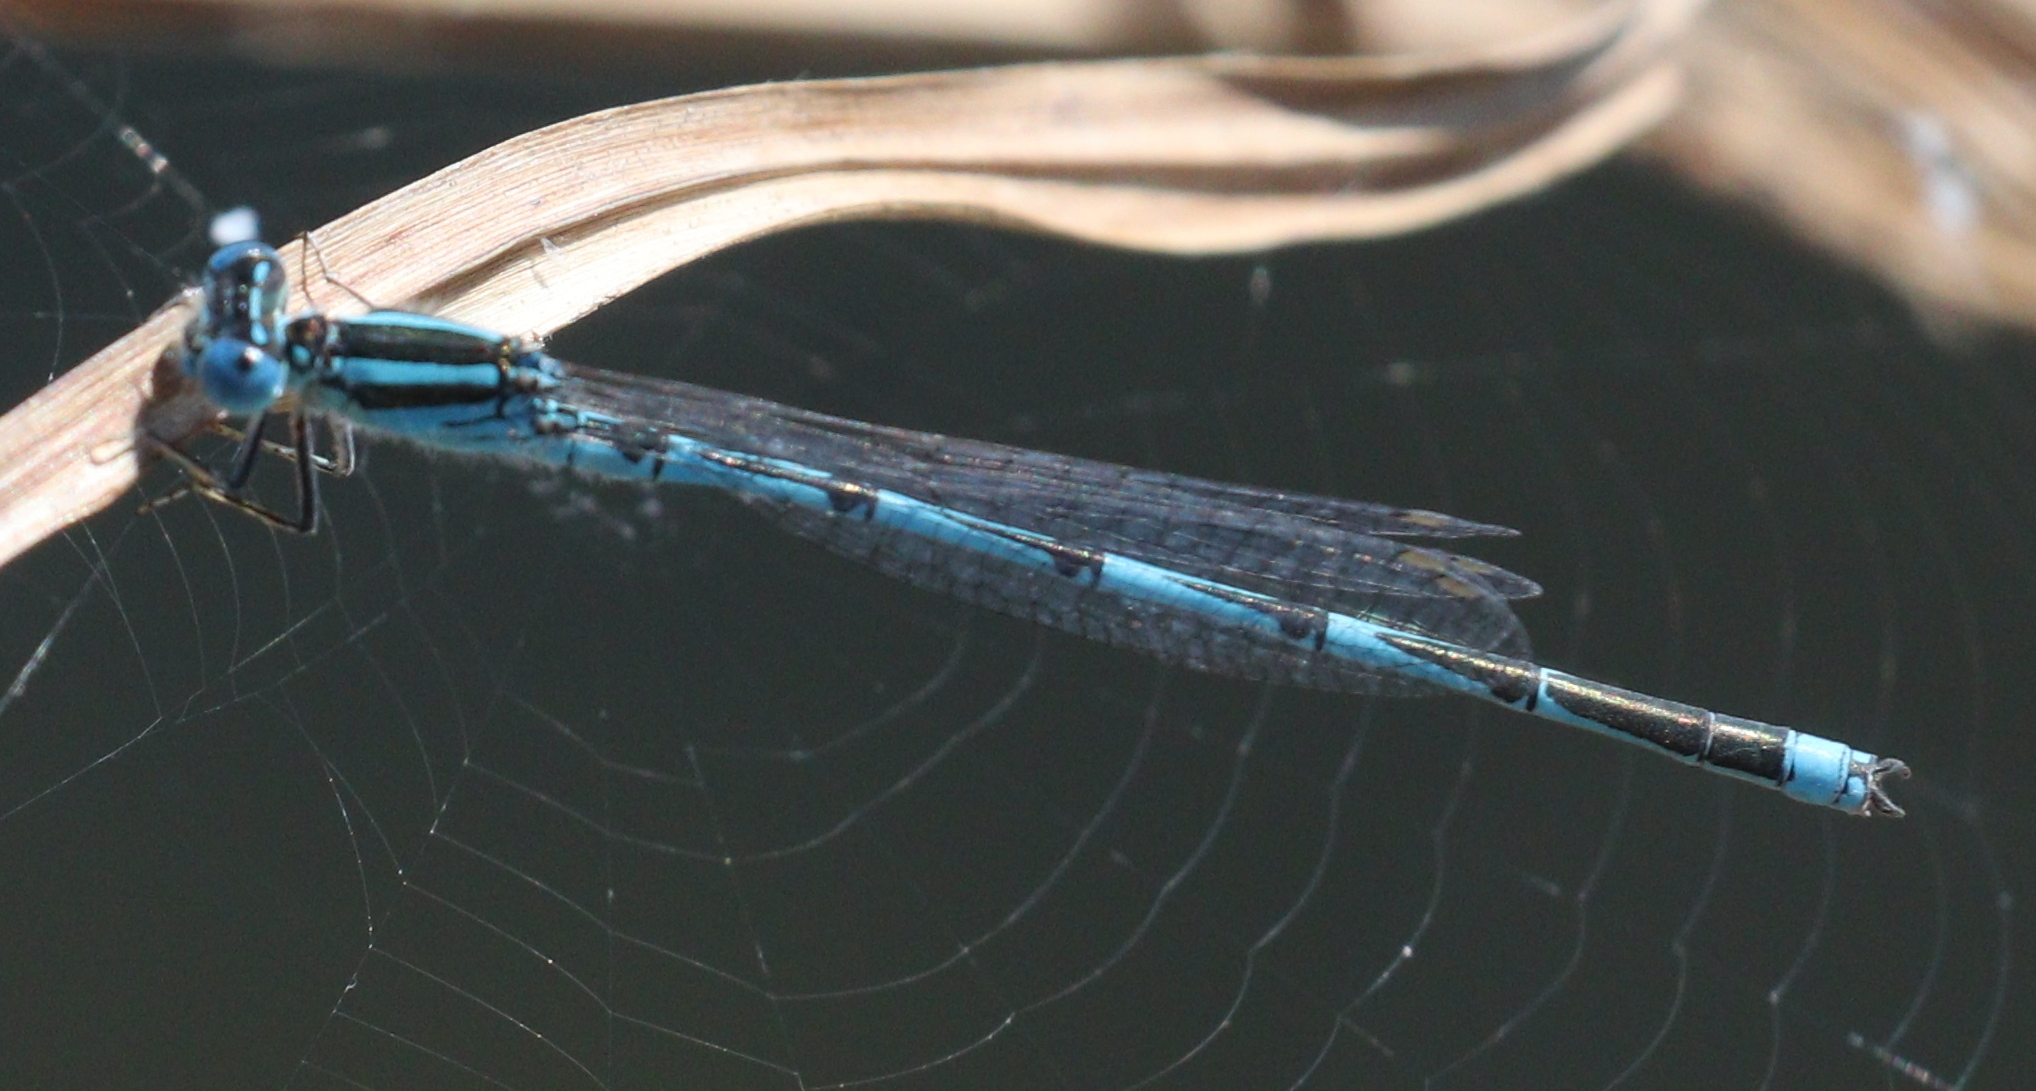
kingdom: Animalia
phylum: Arthropoda
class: Insecta
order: Odonata
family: Coenagrionidae
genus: Erythromma
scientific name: Erythromma lindenii
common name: Blue-eye
